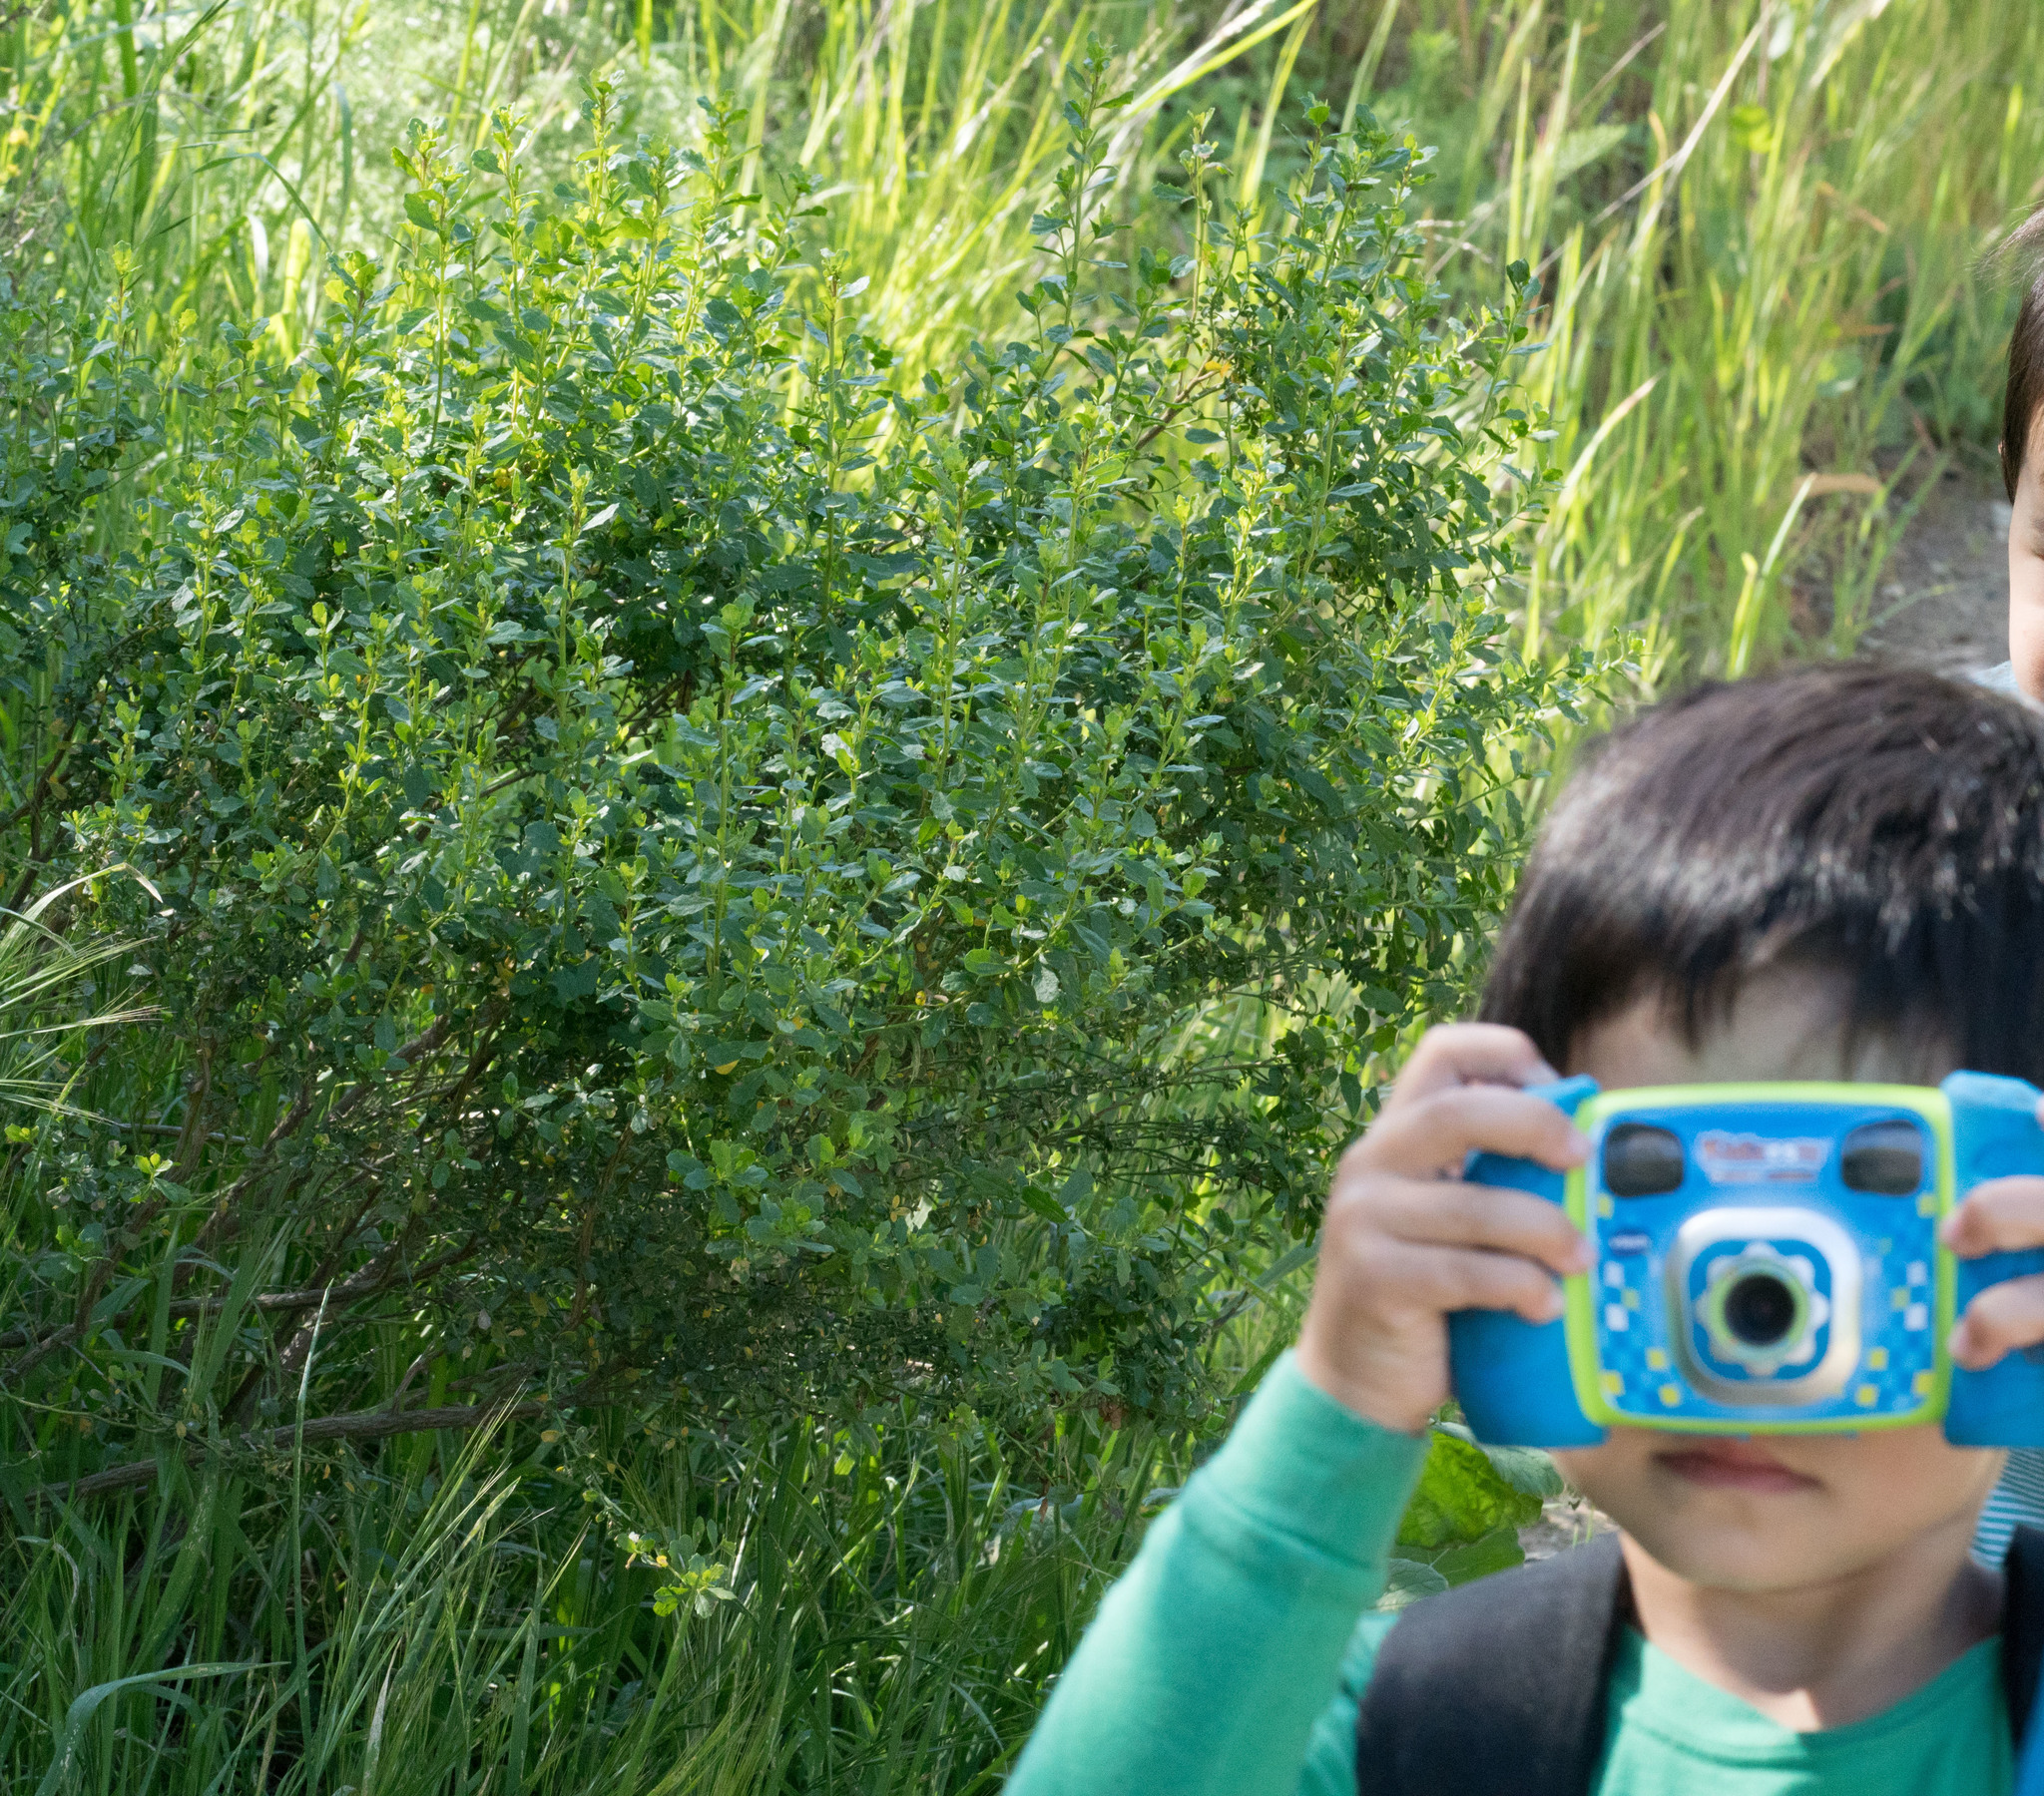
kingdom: Plantae
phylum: Tracheophyta
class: Magnoliopsida
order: Asterales
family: Asteraceae
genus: Baccharis
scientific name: Baccharis pilularis
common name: Coyotebrush
